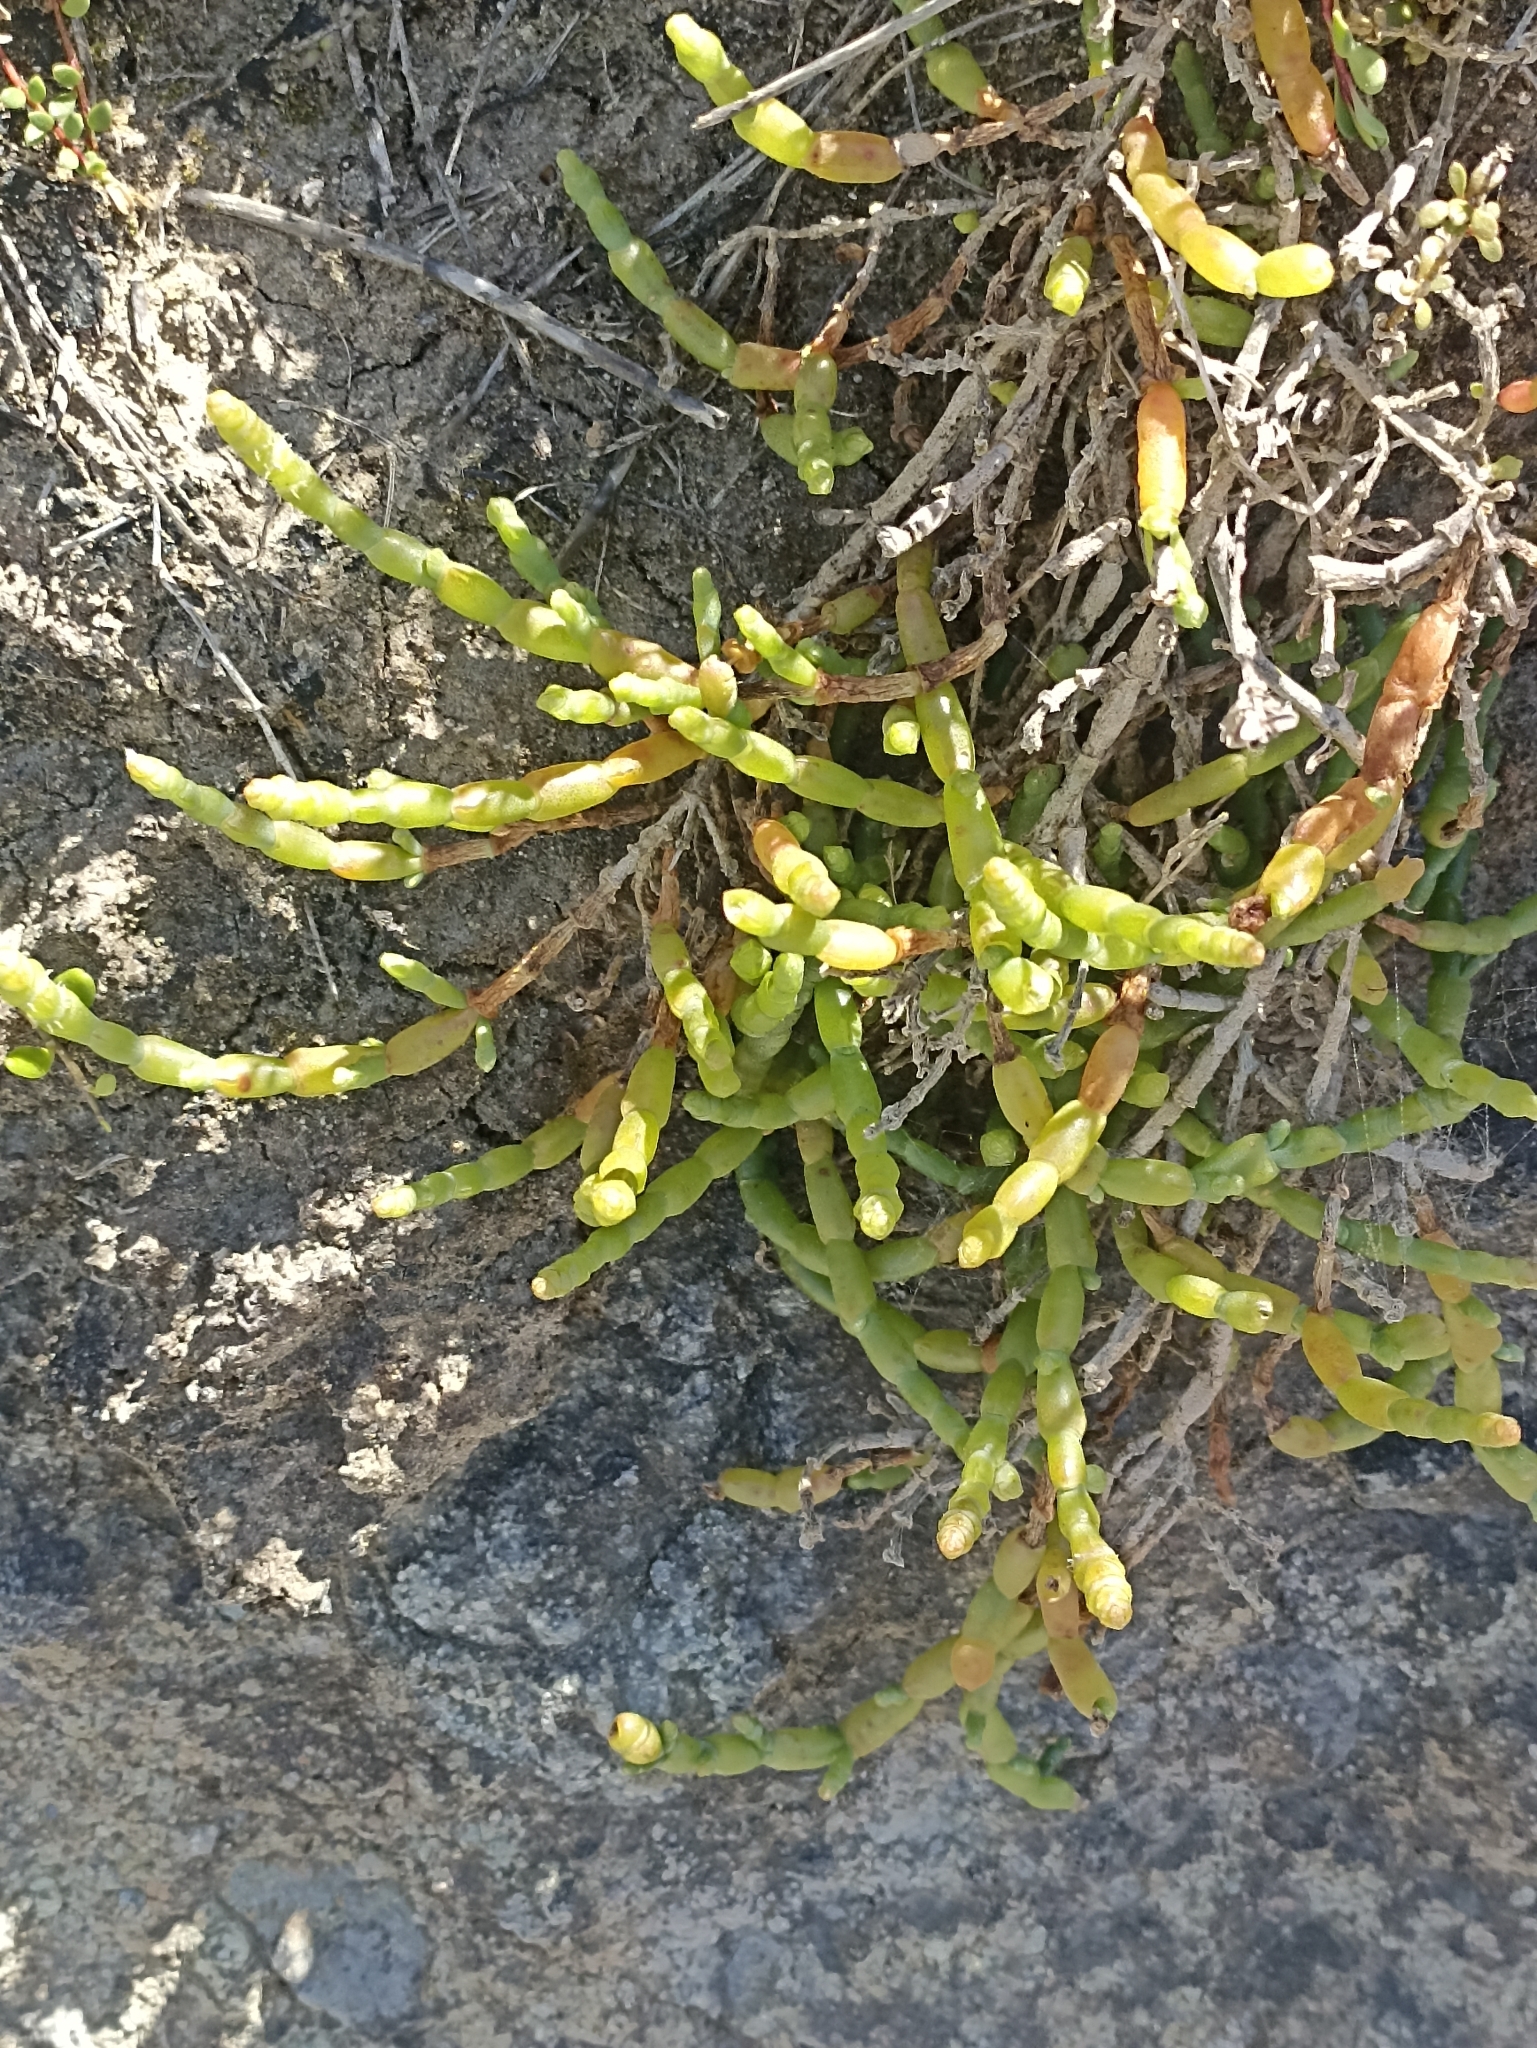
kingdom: Plantae
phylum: Tracheophyta
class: Magnoliopsida
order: Caryophyllales
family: Amaranthaceae
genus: Salicornia
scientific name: Salicornia quinqueflora
